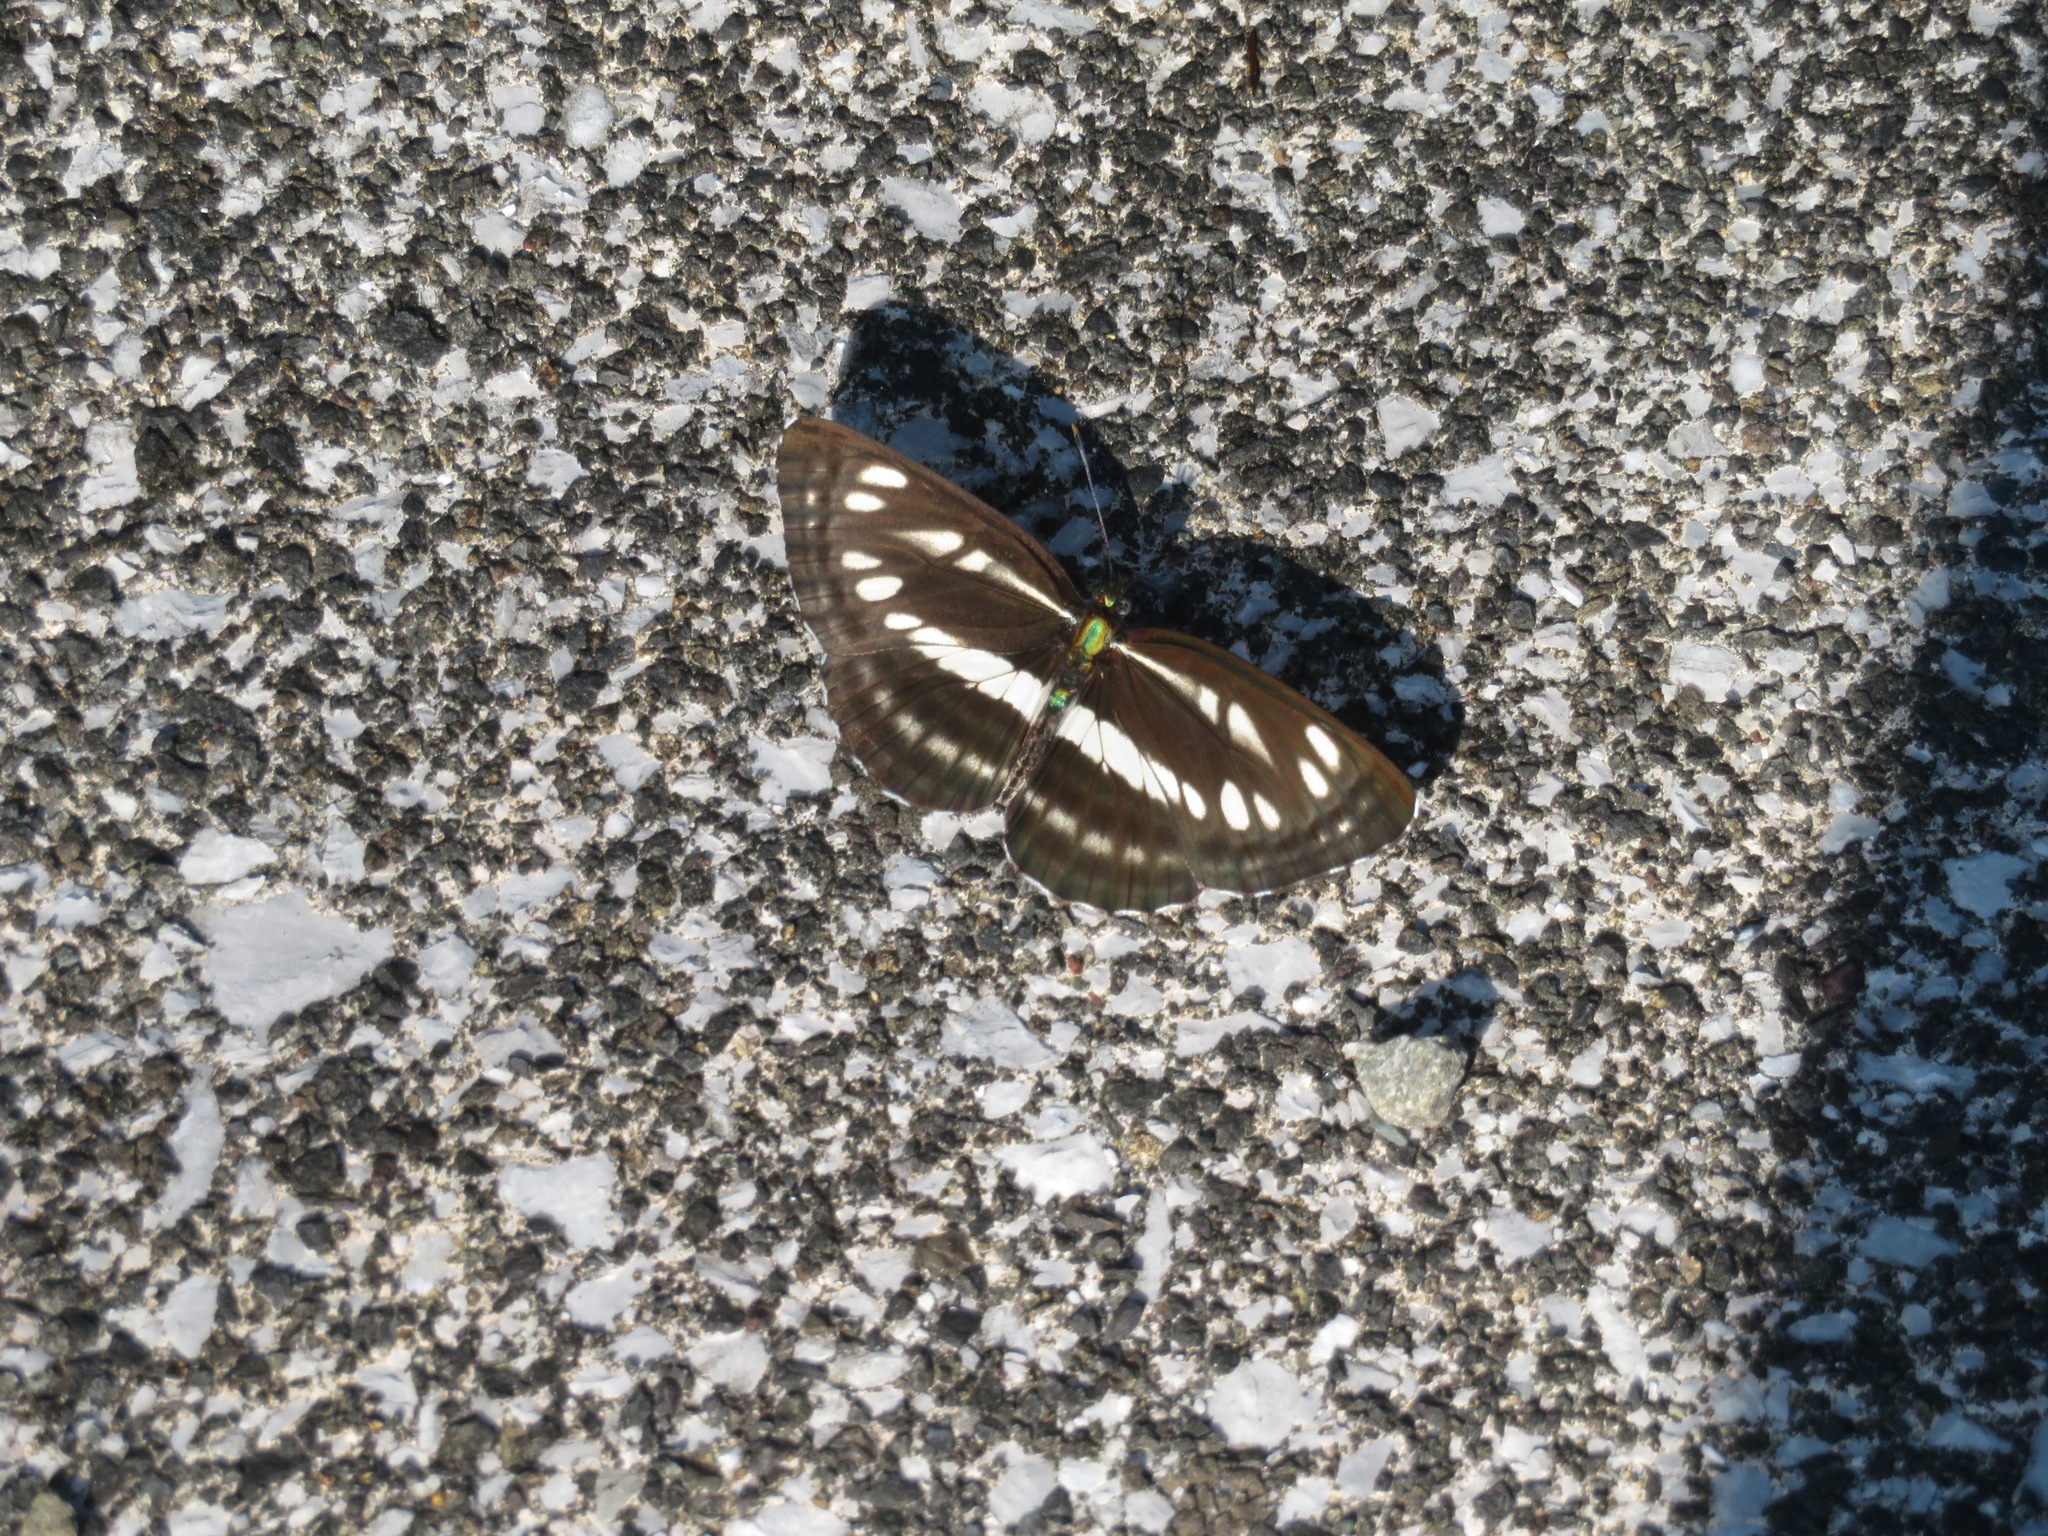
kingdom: Animalia
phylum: Arthropoda
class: Insecta
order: Lepidoptera
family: Nymphalidae
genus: Neptis
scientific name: Neptis sappho
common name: Common glider
